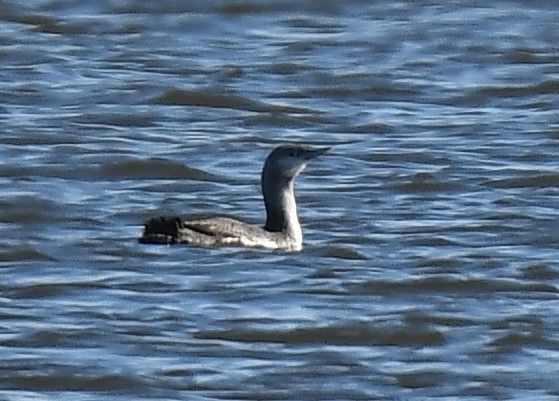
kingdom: Animalia
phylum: Chordata
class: Aves
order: Gaviiformes
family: Gaviidae
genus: Gavia
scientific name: Gavia stellata
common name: Red-throated loon
